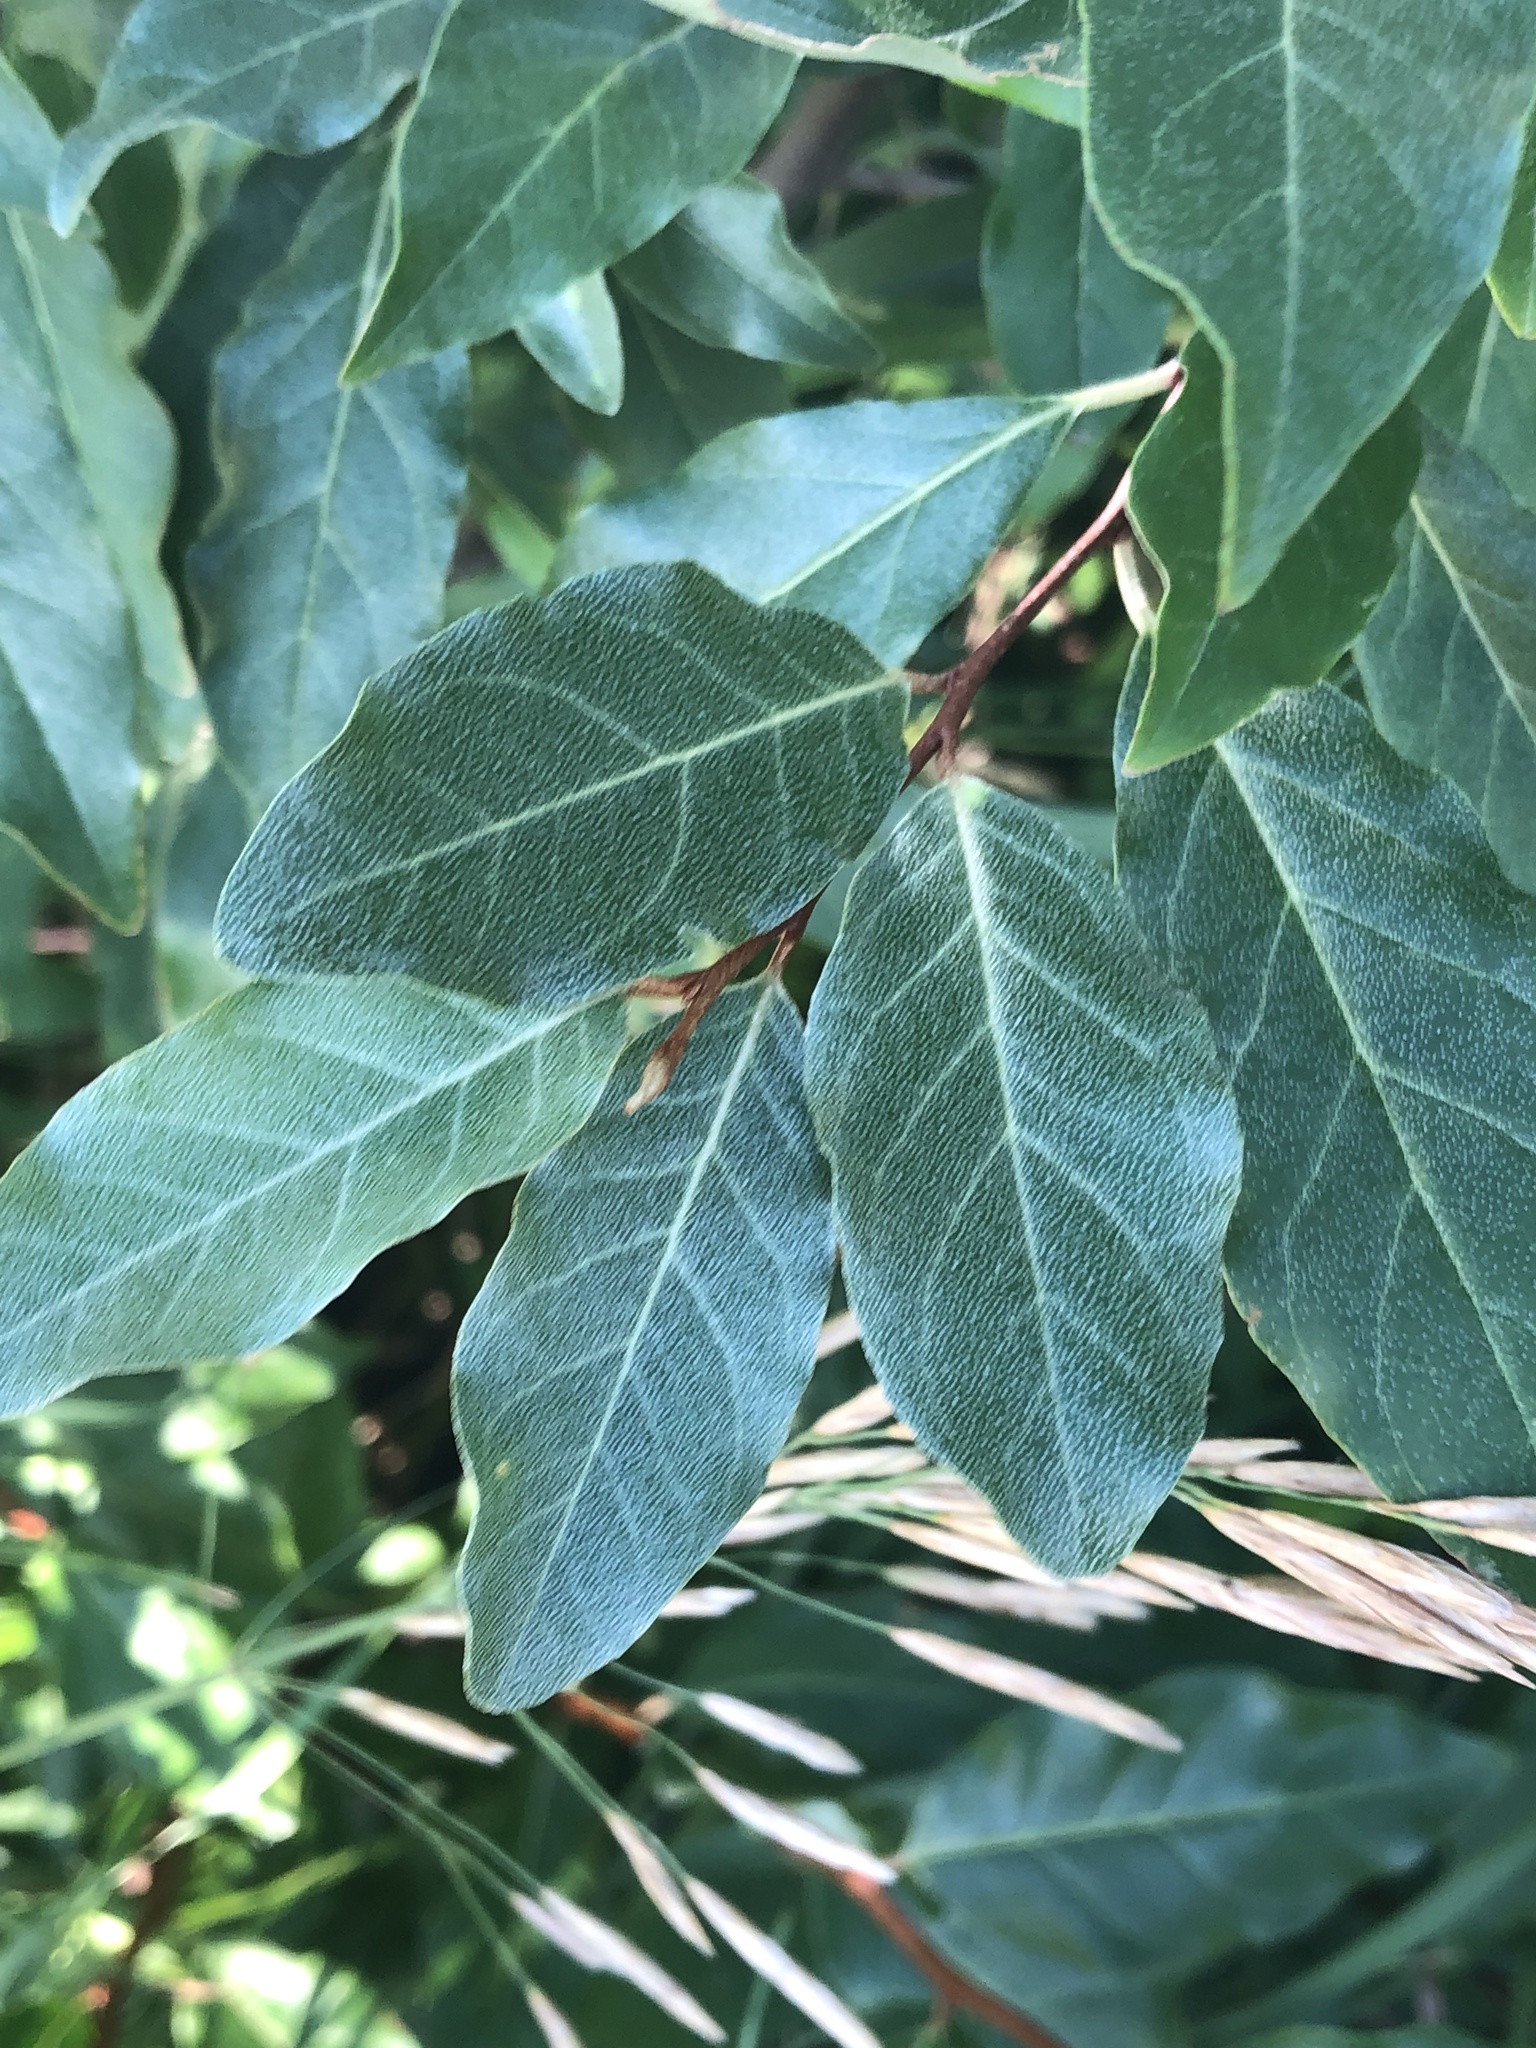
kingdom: Plantae
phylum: Tracheophyta
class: Magnoliopsida
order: Rosales
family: Elaeagnaceae
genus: Elaeagnus
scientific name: Elaeagnus umbellata
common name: Autumn olive
